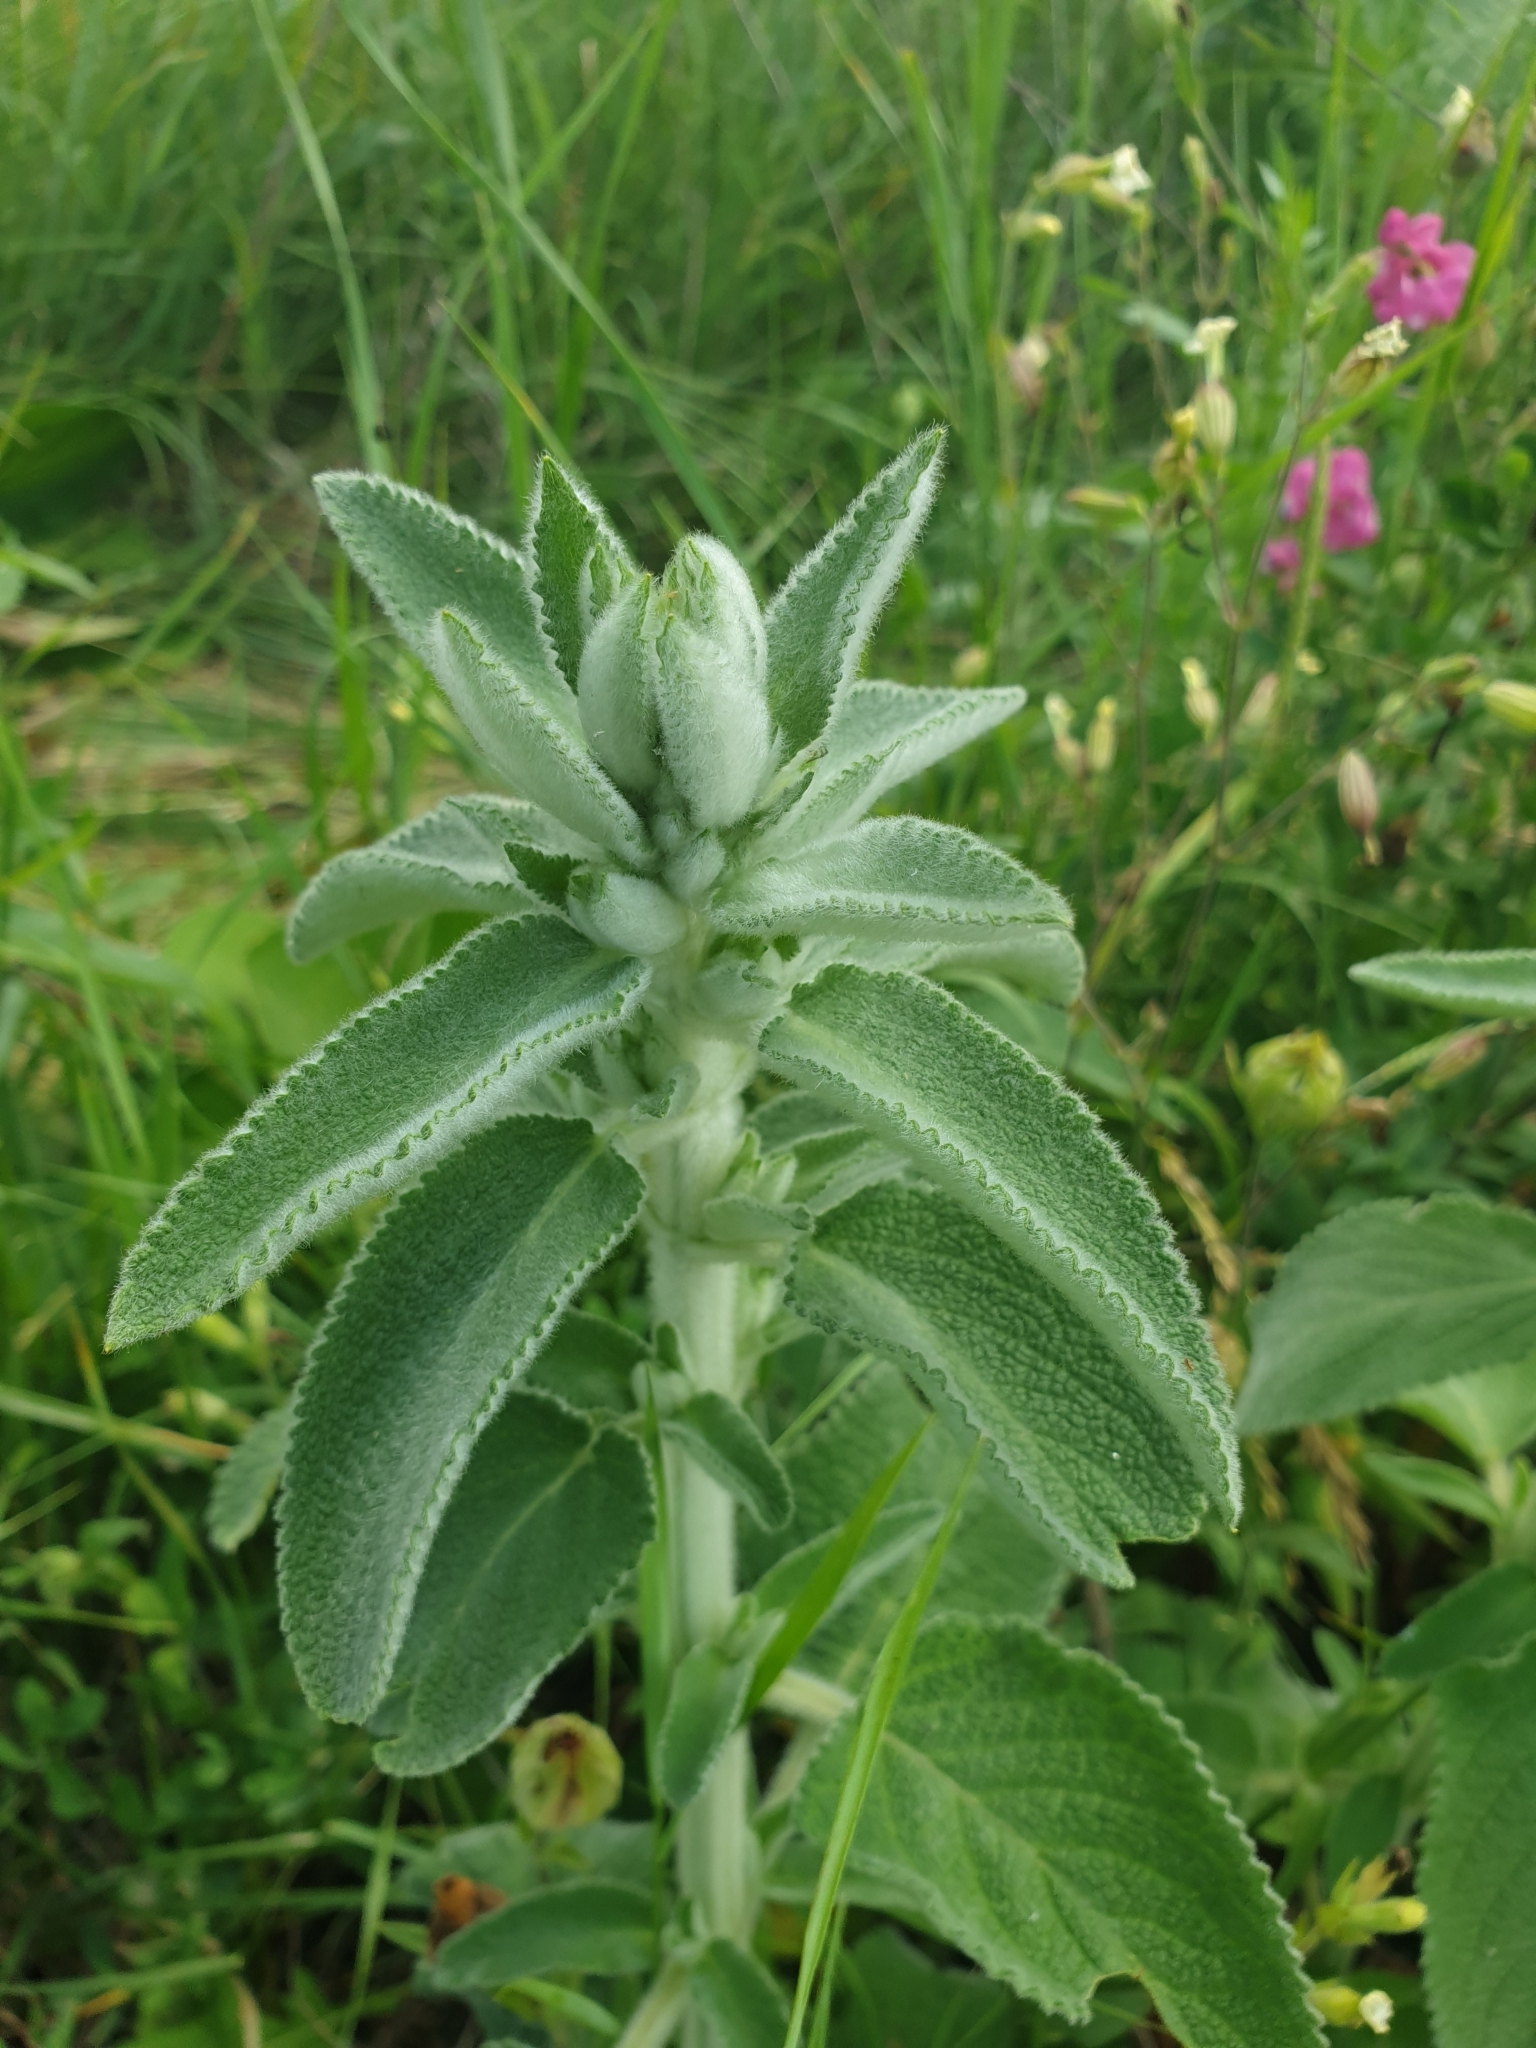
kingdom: Plantae
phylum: Tracheophyta
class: Magnoliopsida
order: Lamiales
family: Lamiaceae
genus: Stachys
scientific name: Stachys germanica
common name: Downy woundwort
